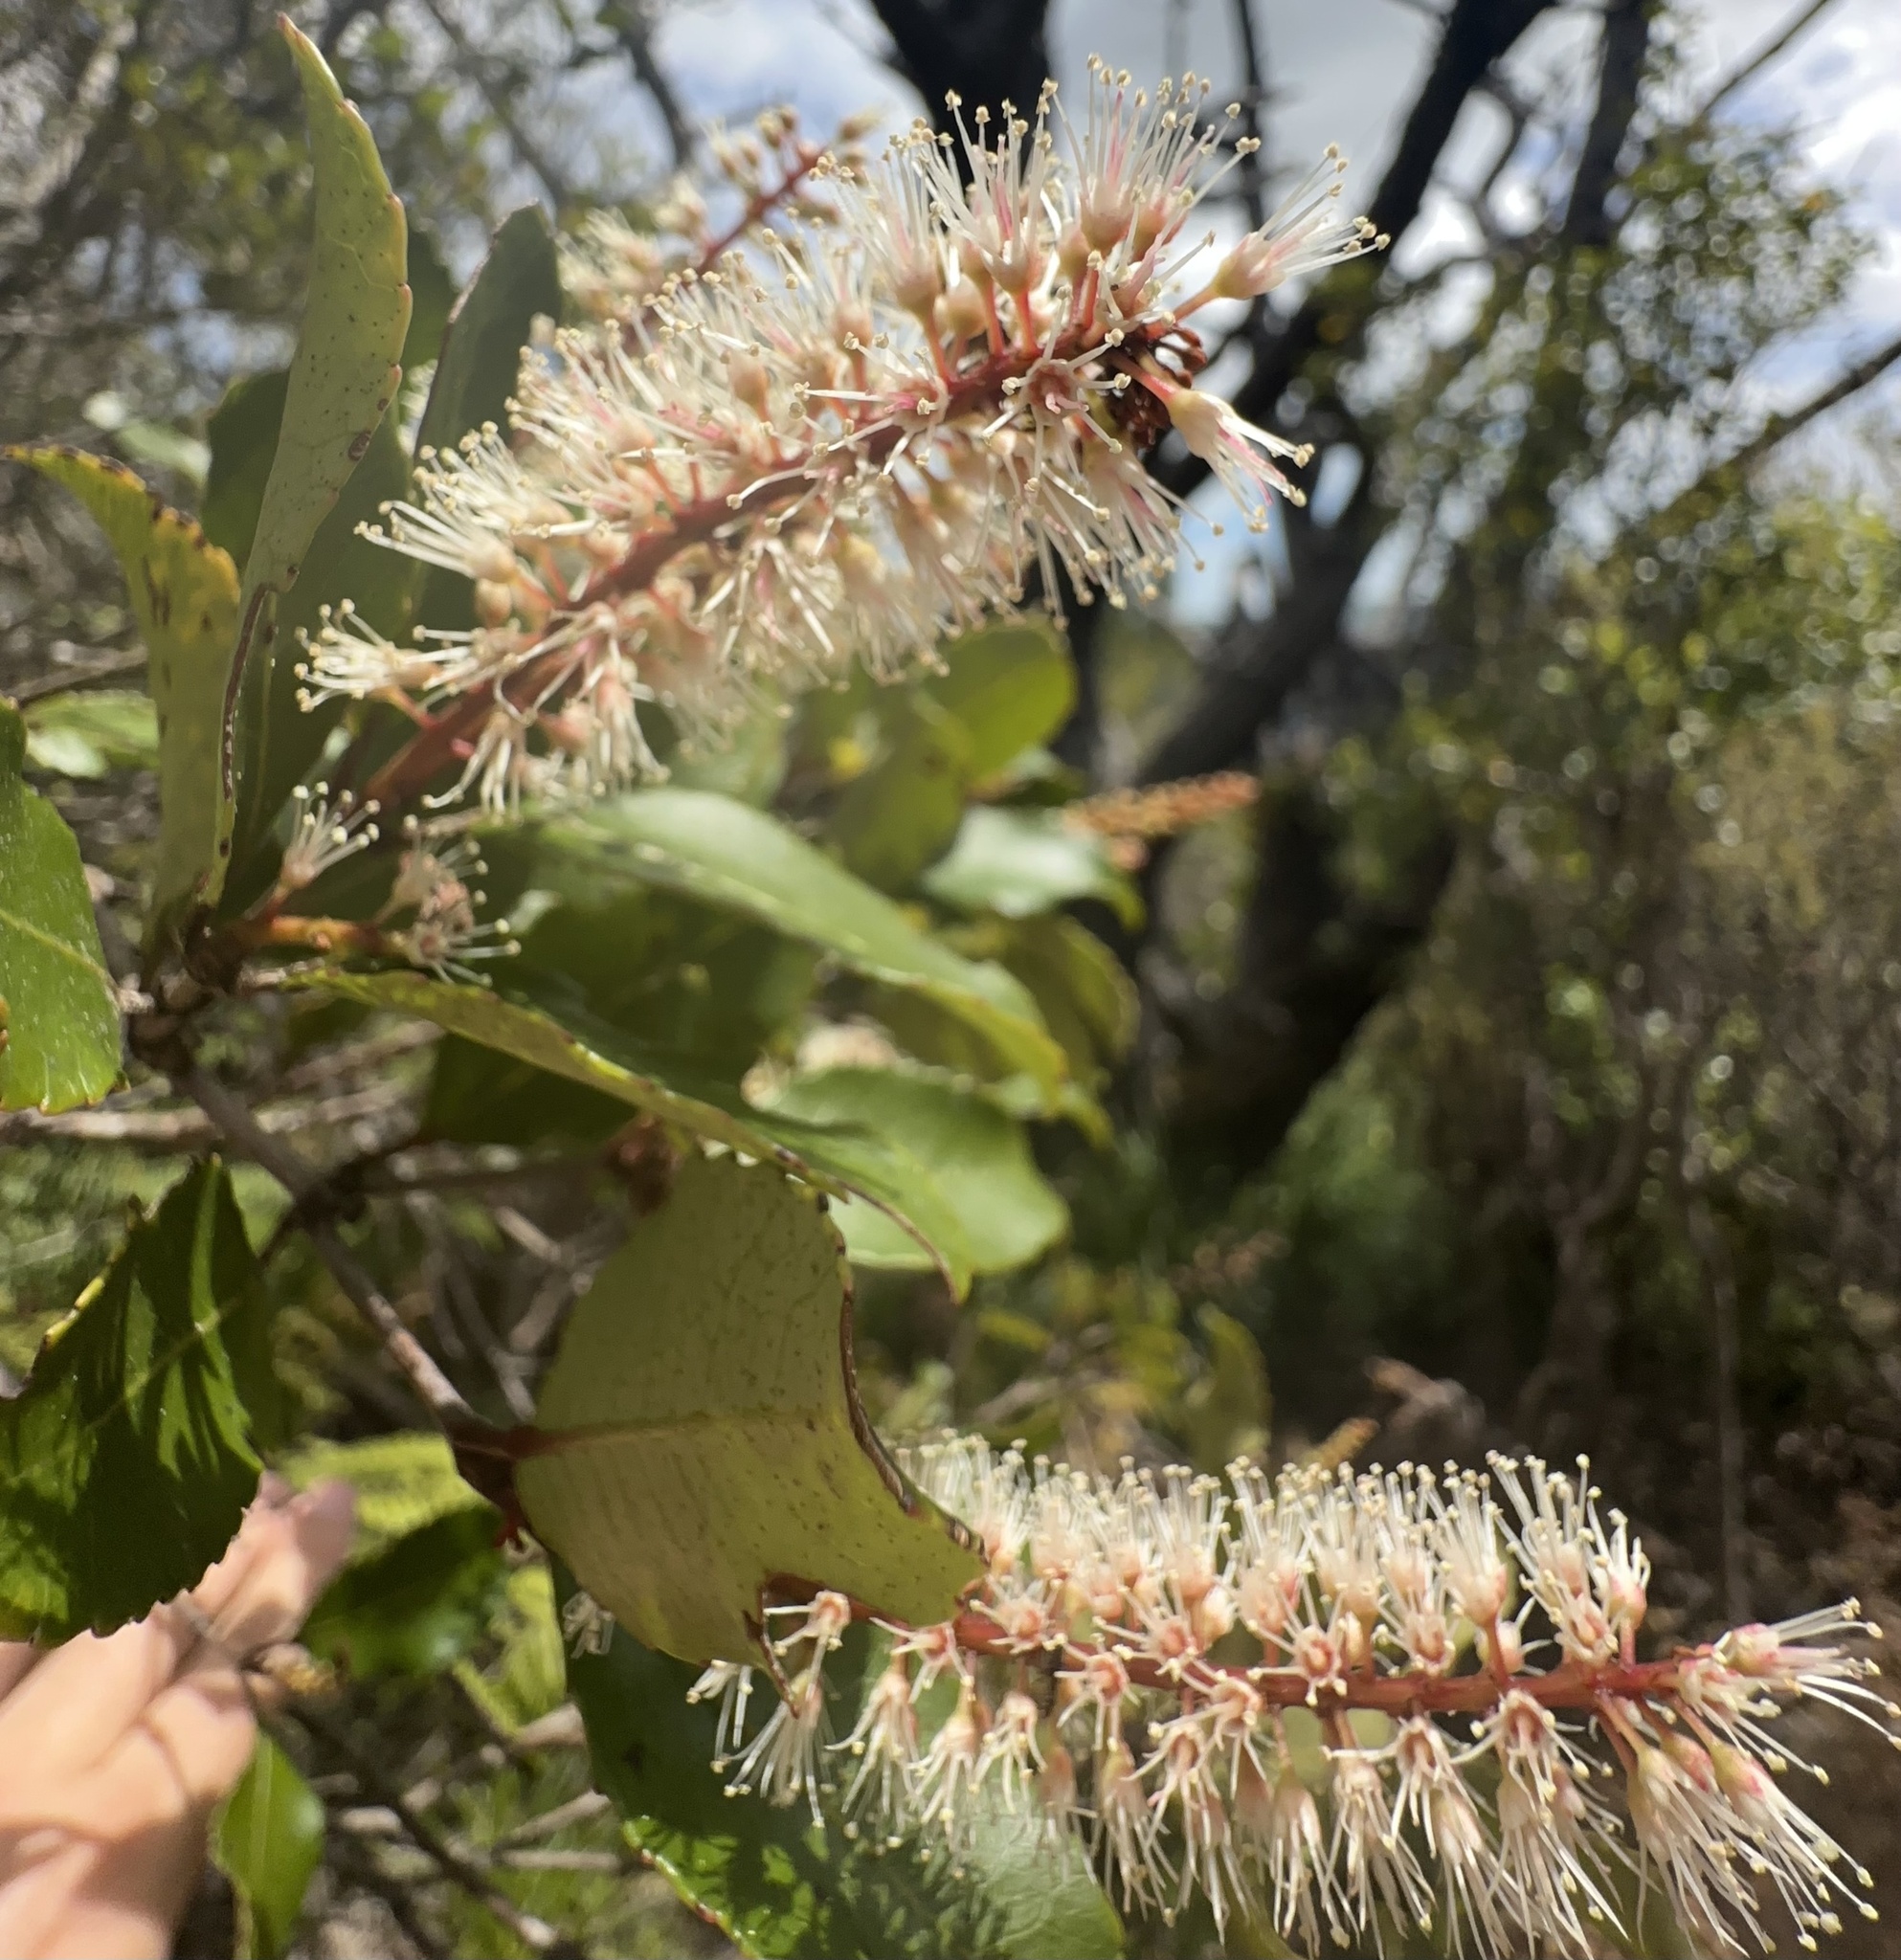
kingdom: Plantae
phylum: Tracheophyta
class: Magnoliopsida
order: Oxalidales
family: Cunoniaceae
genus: Pterophylla
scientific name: Pterophylla racemosa
